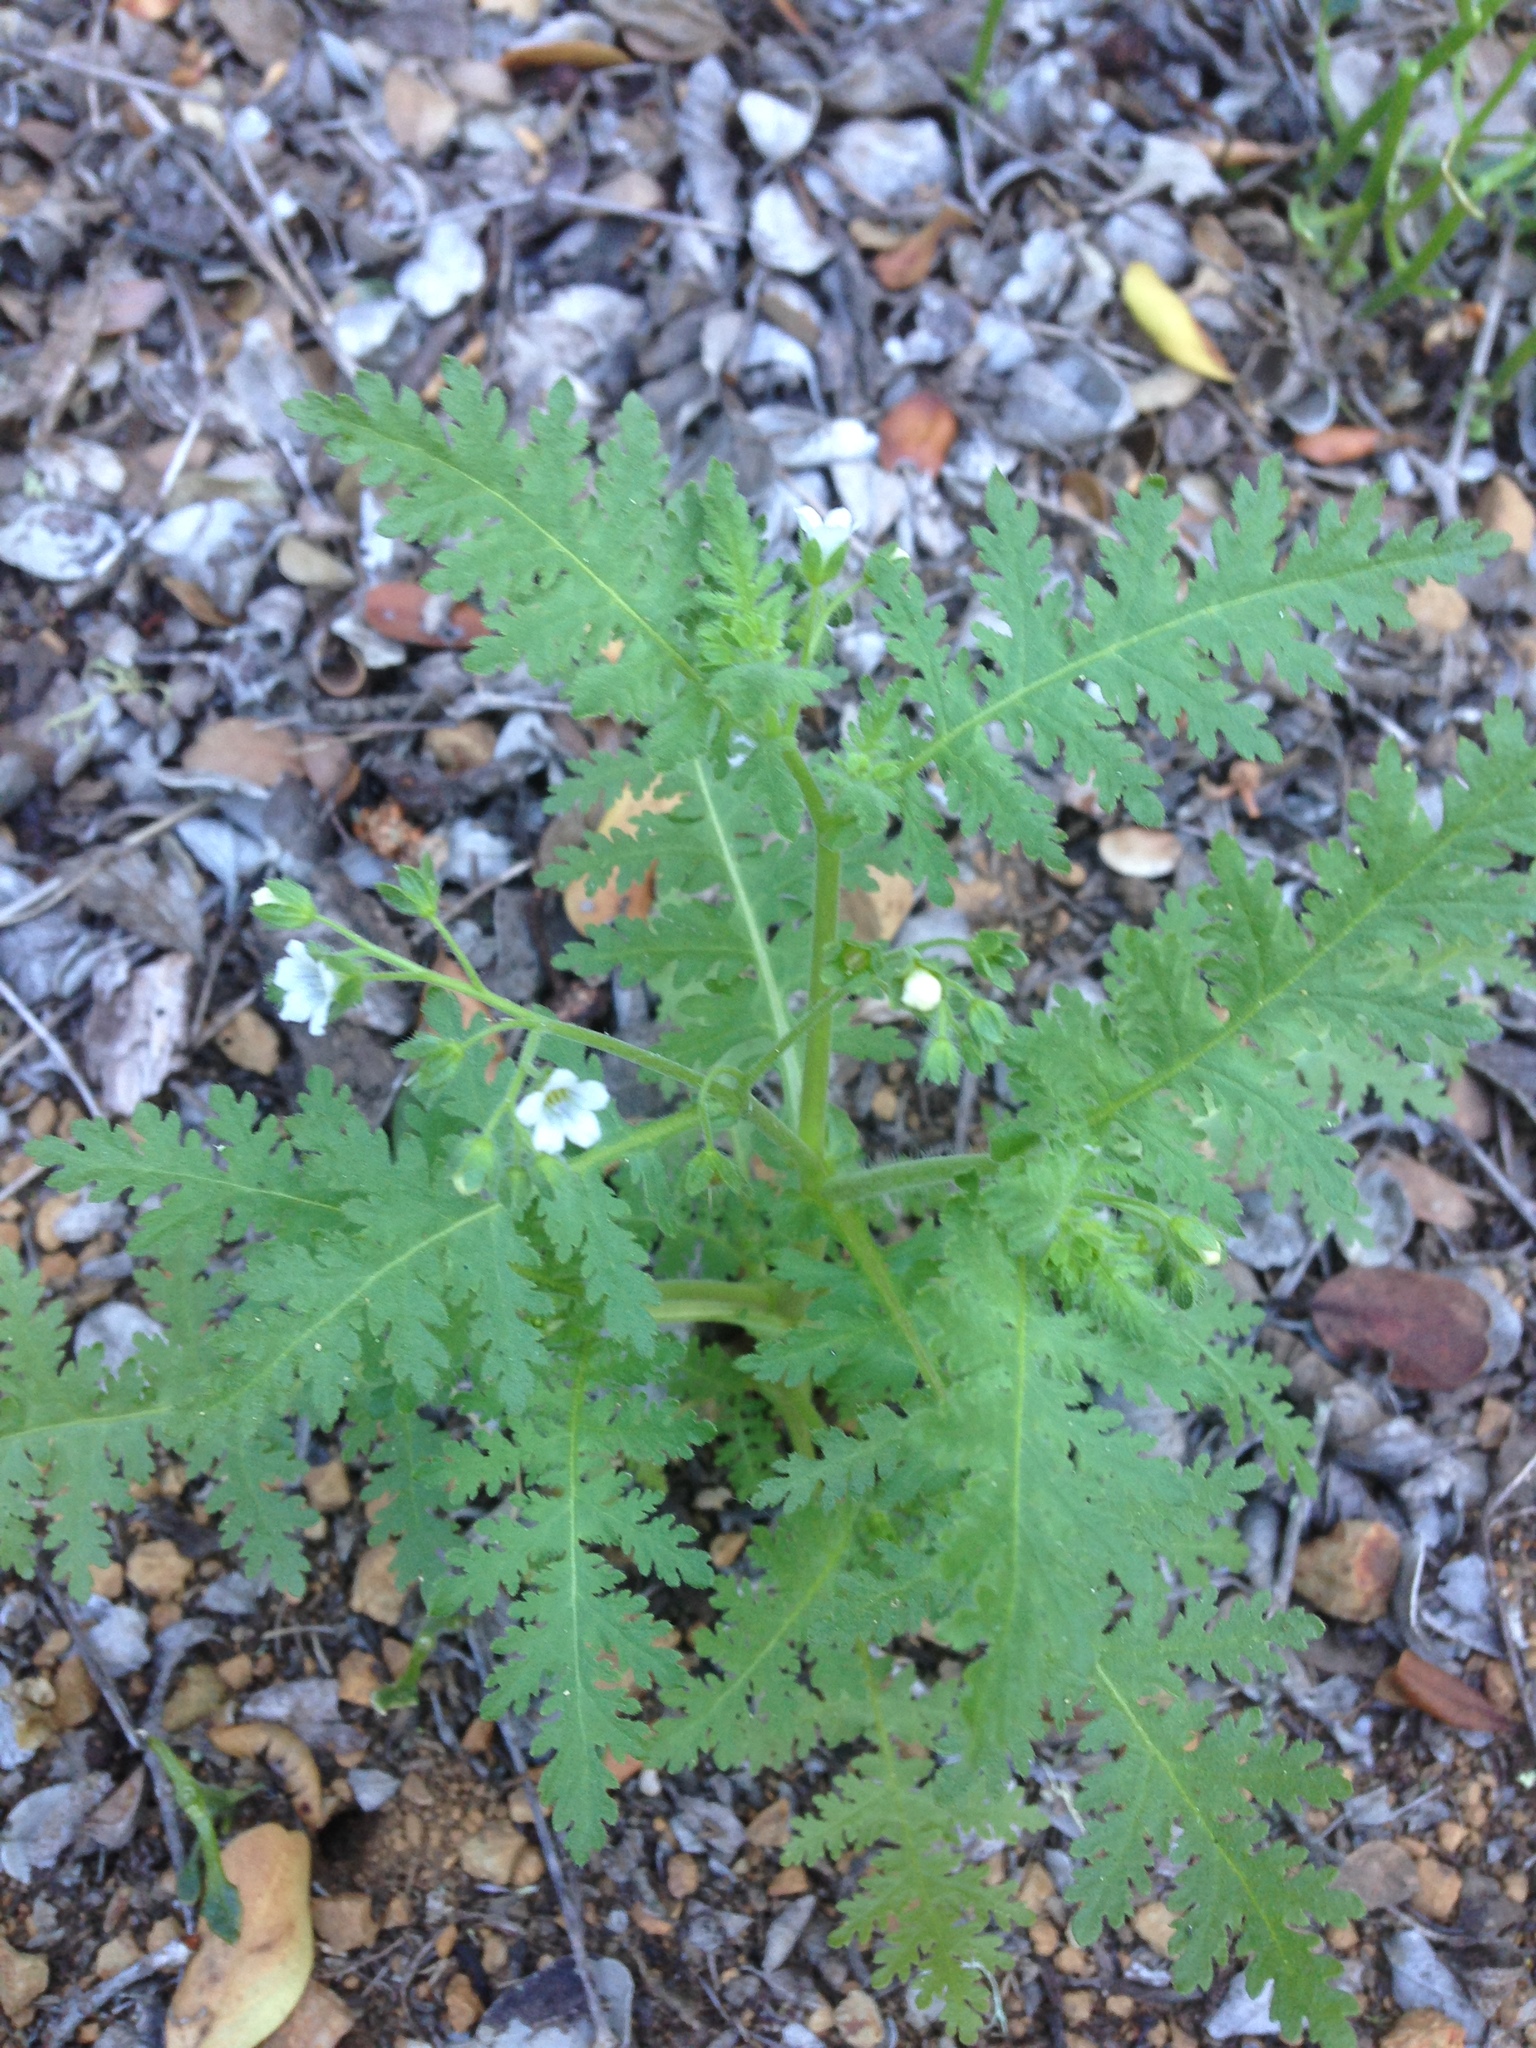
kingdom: Plantae
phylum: Tracheophyta
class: Magnoliopsida
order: Boraginales
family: Hydrophyllaceae
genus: Eucrypta
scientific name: Eucrypta chrysanthemifolia
